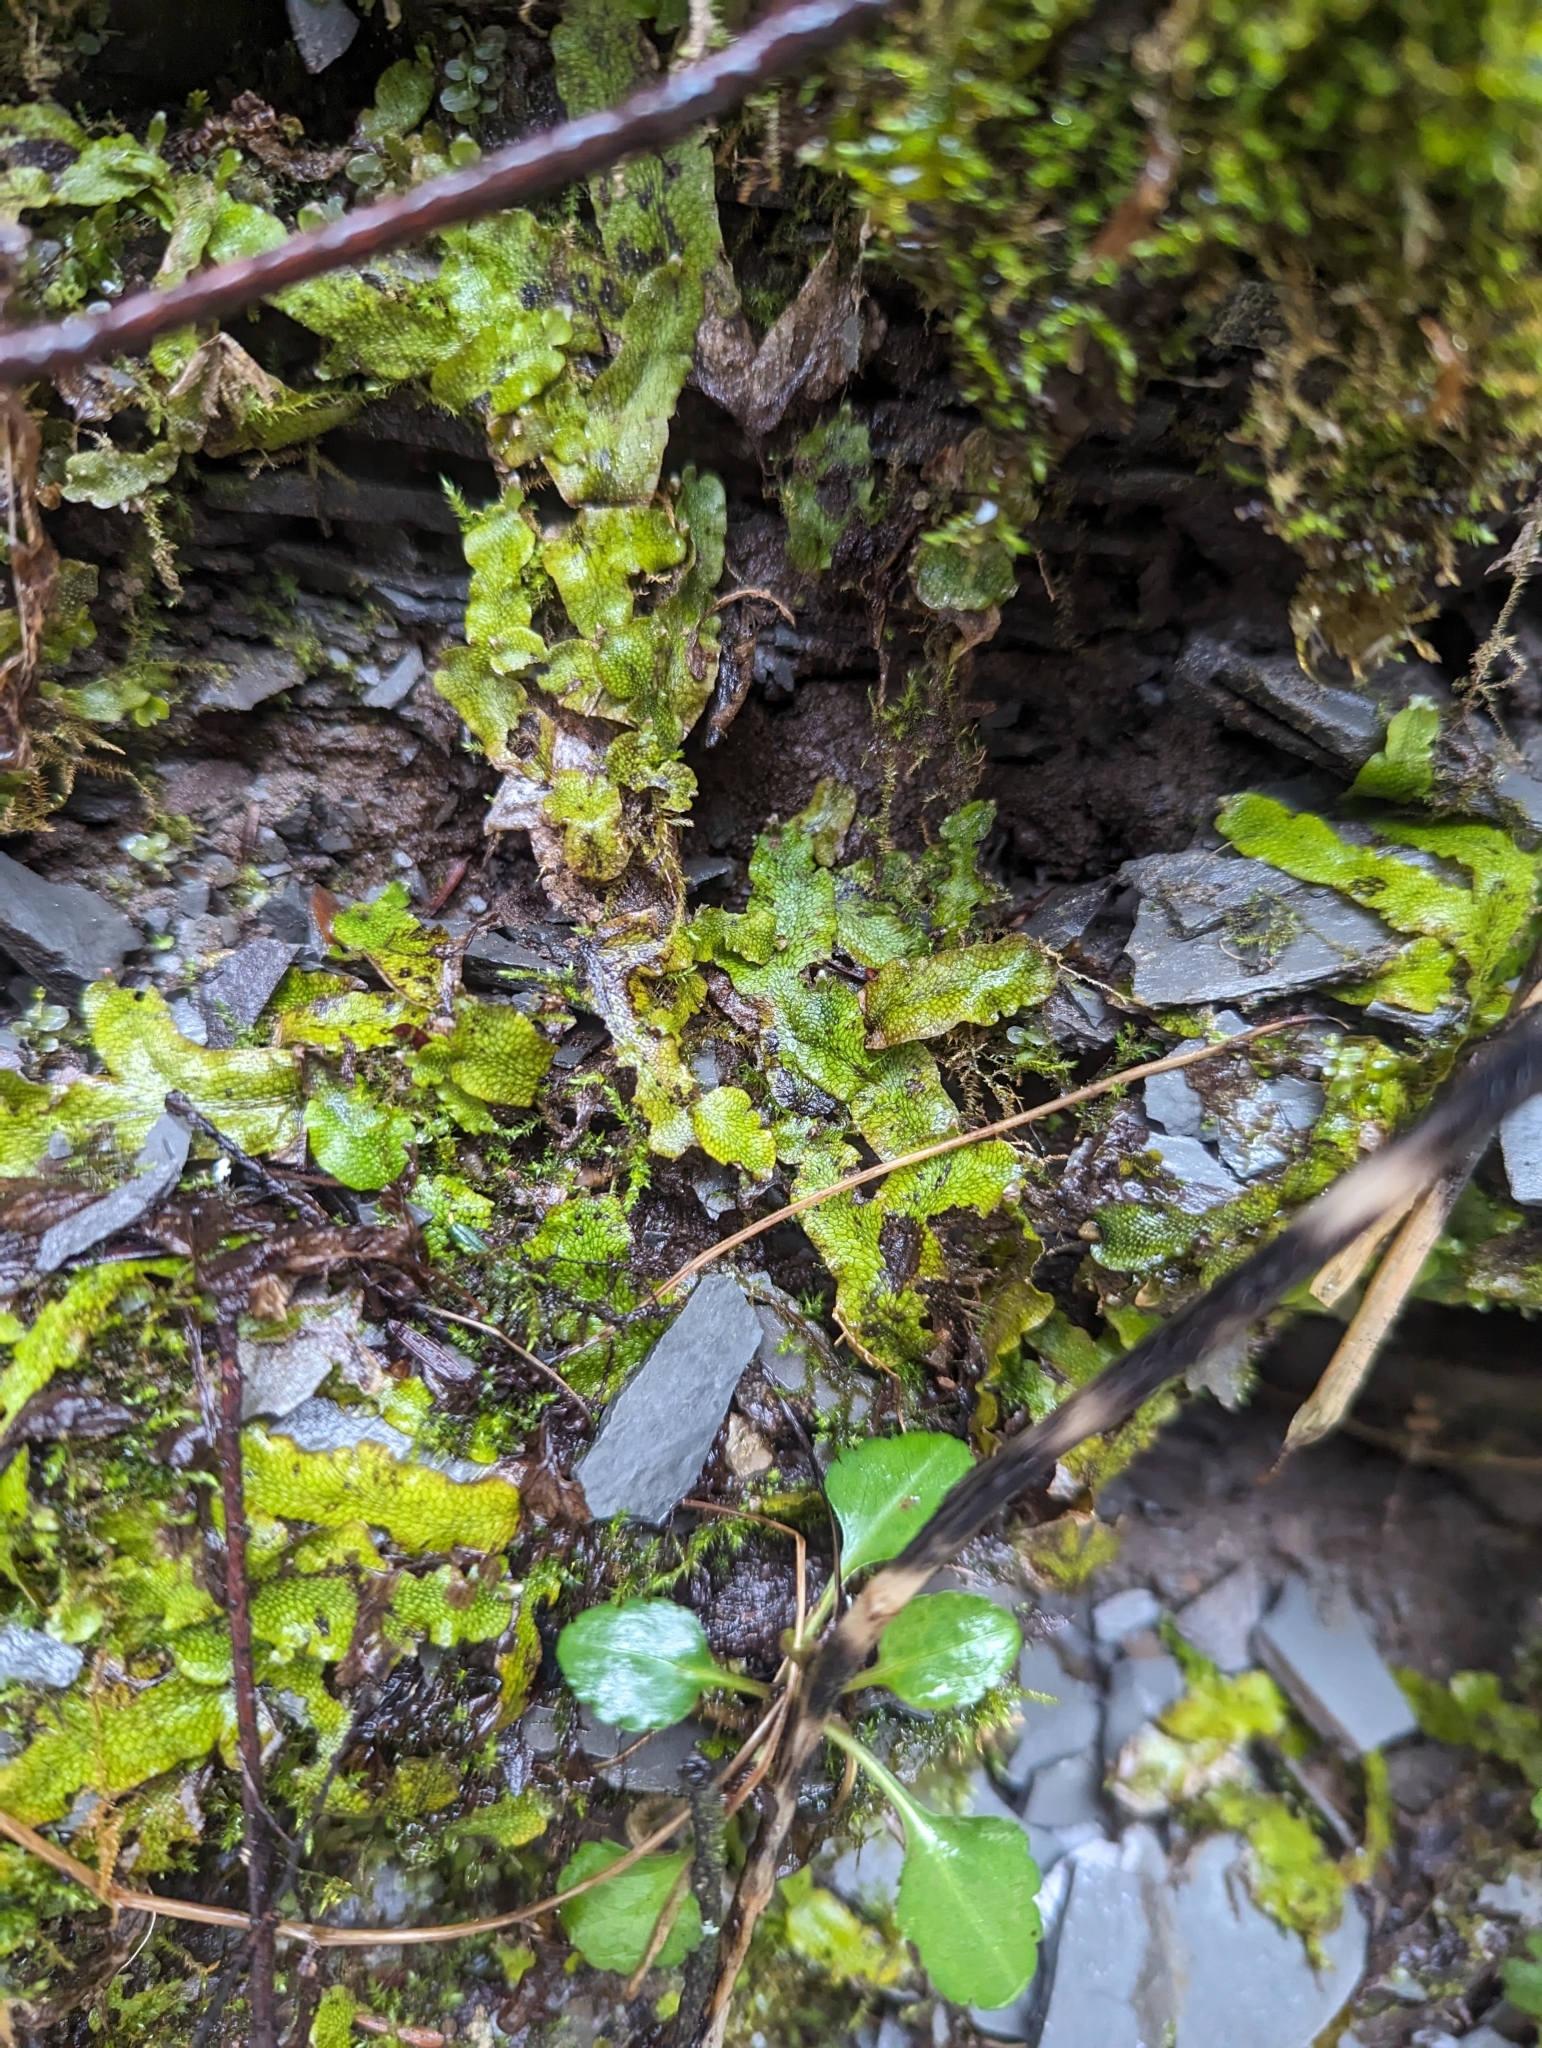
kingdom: Plantae
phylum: Marchantiophyta
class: Marchantiopsida
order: Marchantiales
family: Conocephalaceae
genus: Conocephalum
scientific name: Conocephalum salebrosum
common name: Cat-tongue liverwort
